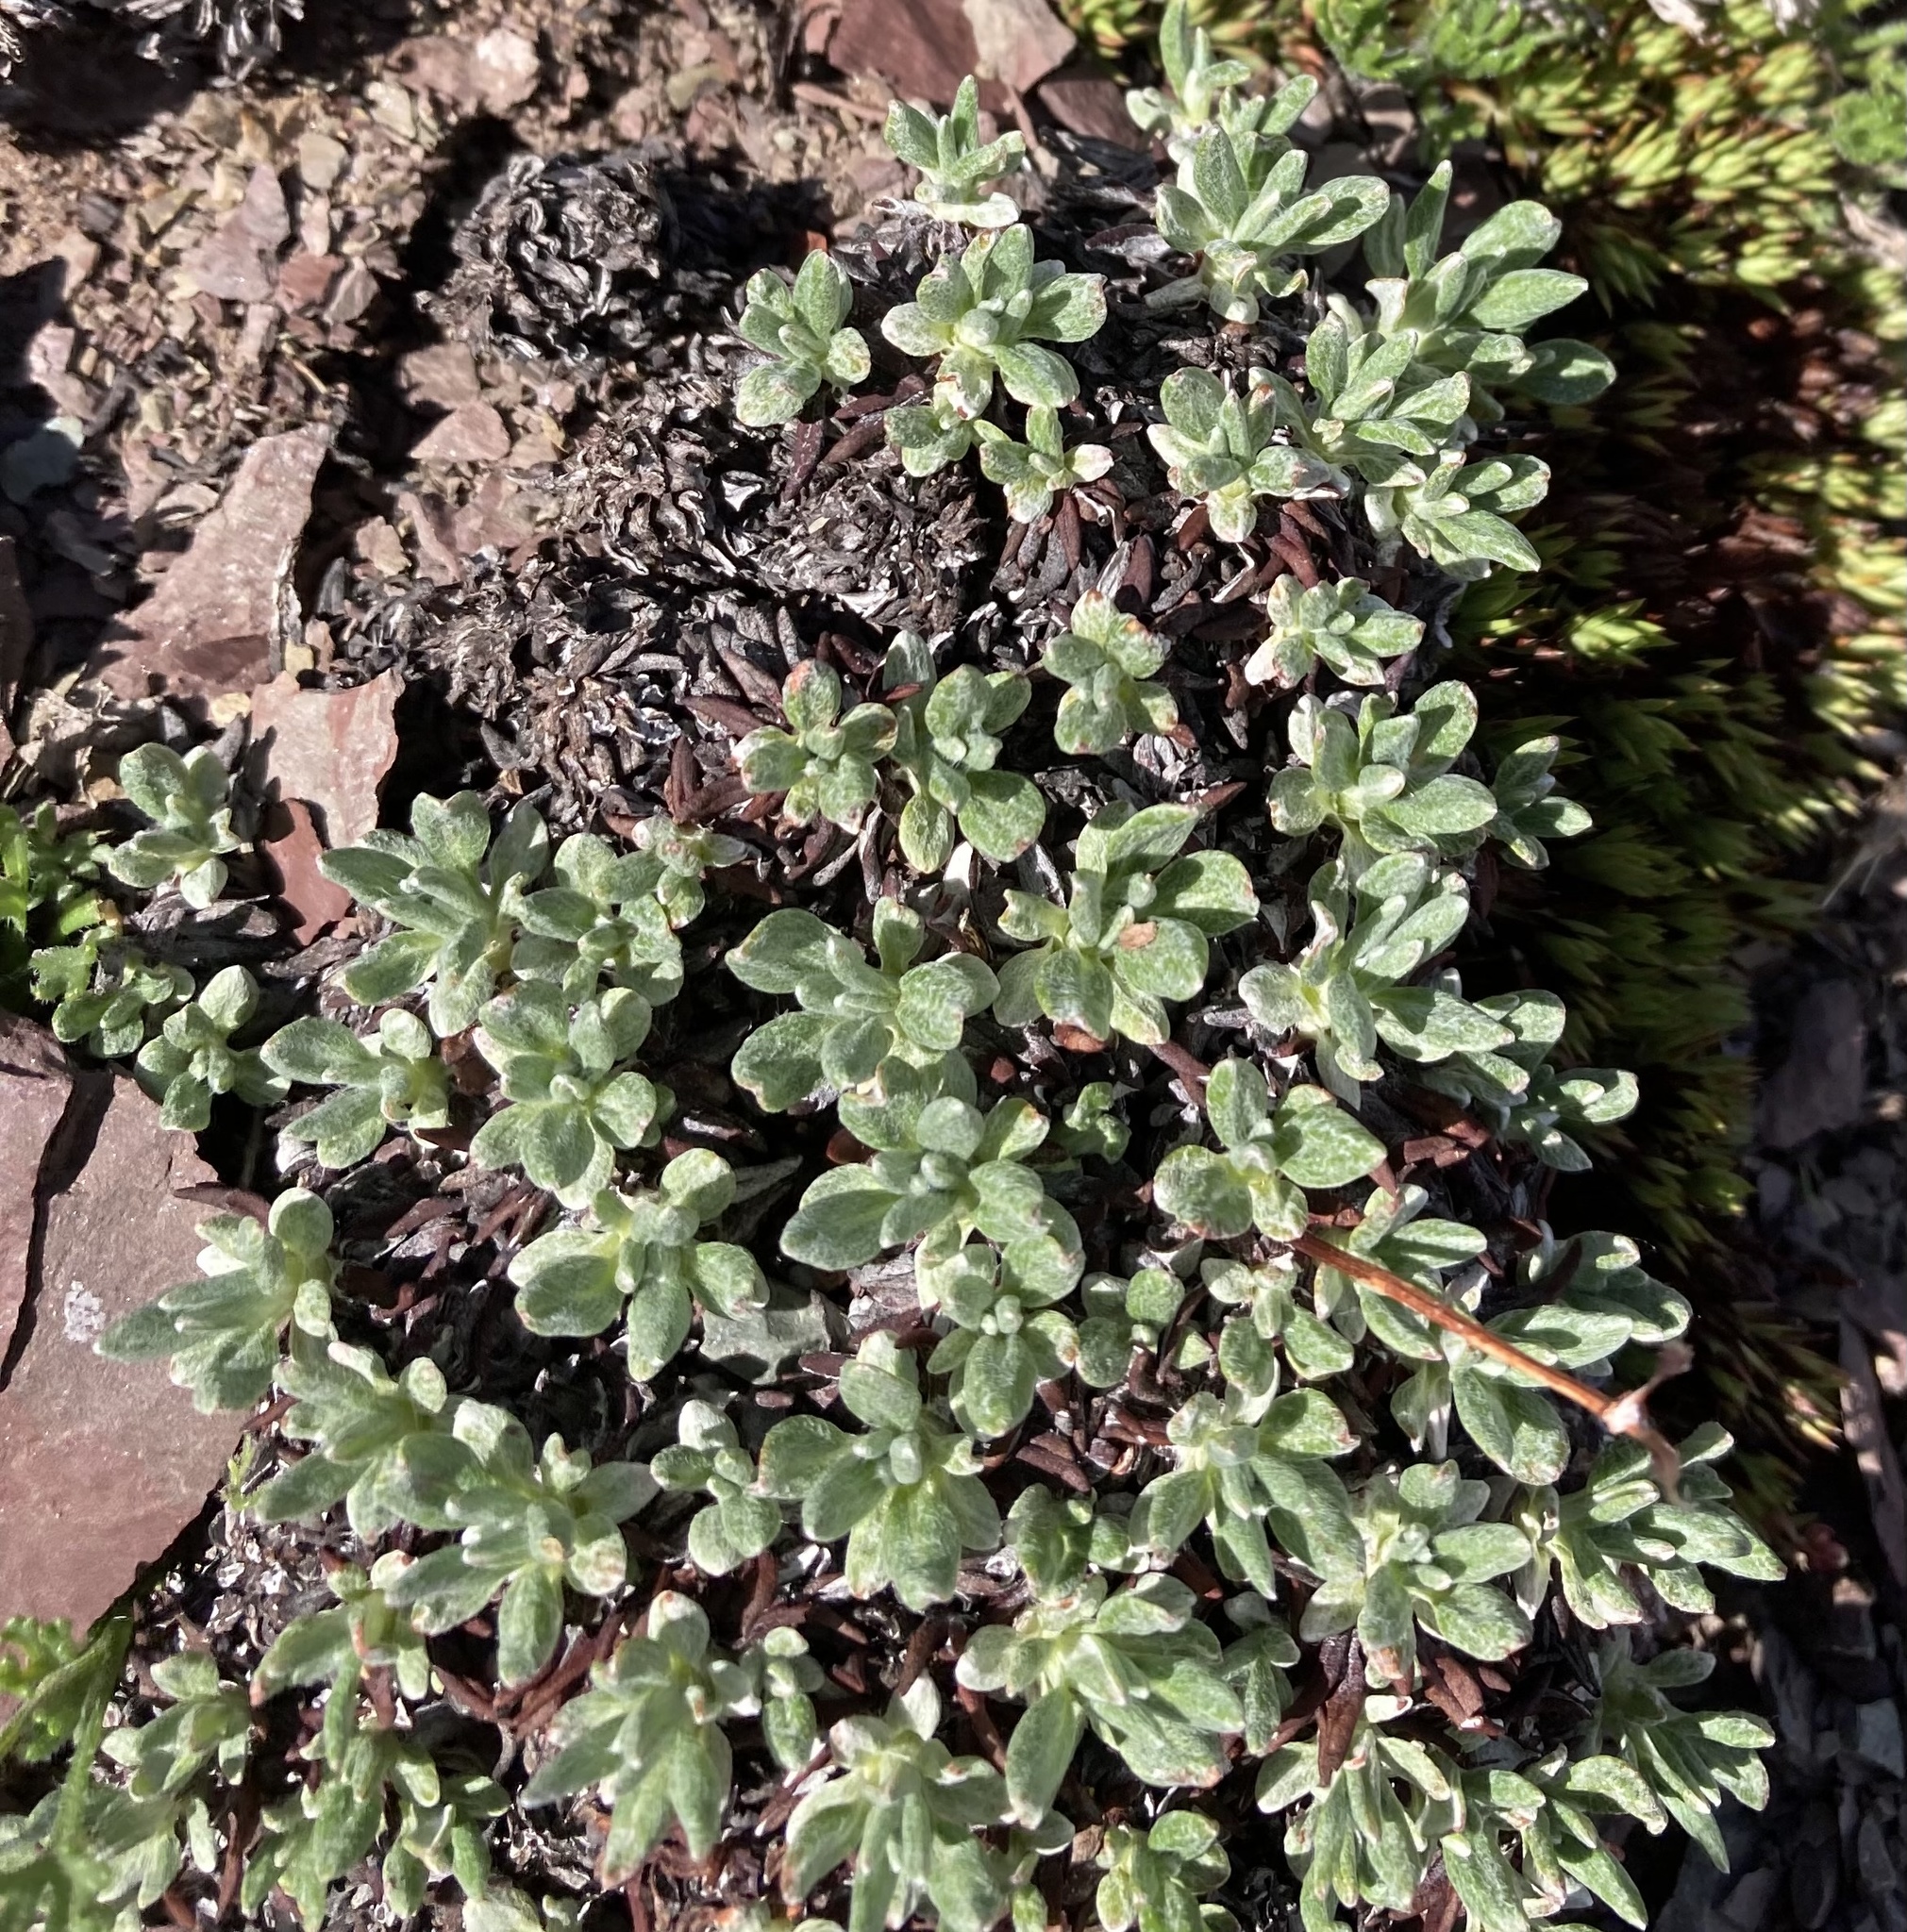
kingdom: Plantae
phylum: Tracheophyta
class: Magnoliopsida
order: Caryophyllales
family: Polygonaceae
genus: Eriogonum
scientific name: Eriogonum androsaceum
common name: Rock-jasmine wild buckwheat
